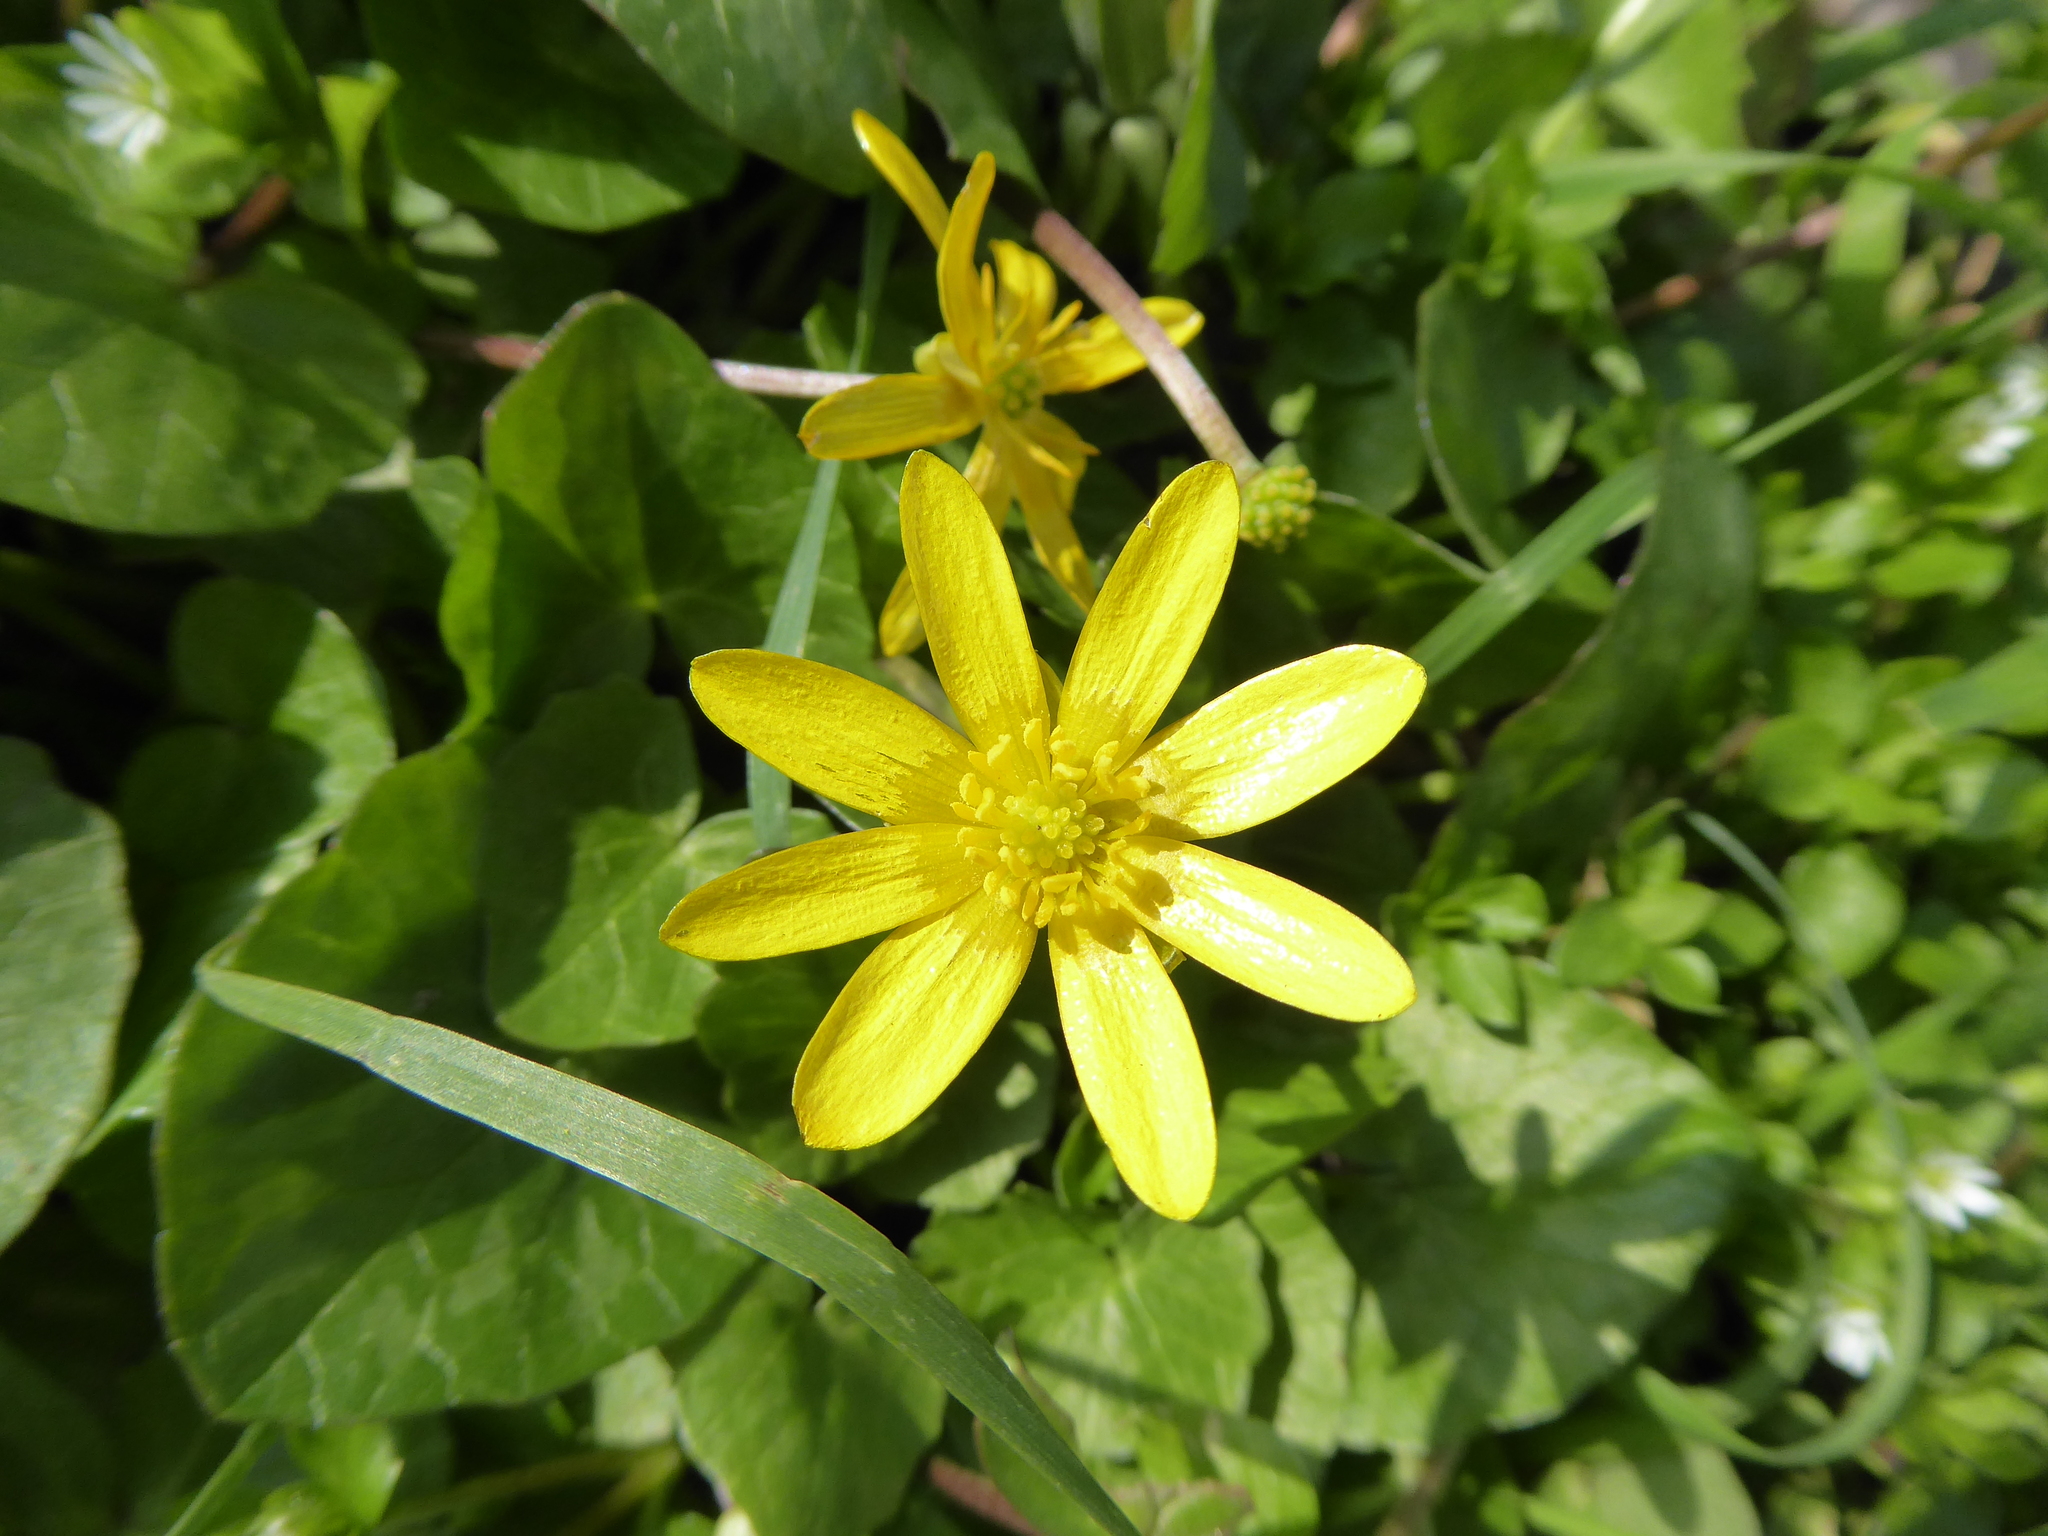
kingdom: Plantae
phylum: Tracheophyta
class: Magnoliopsida
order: Ranunculales
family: Ranunculaceae
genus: Ficaria
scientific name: Ficaria verna
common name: Lesser celandine
